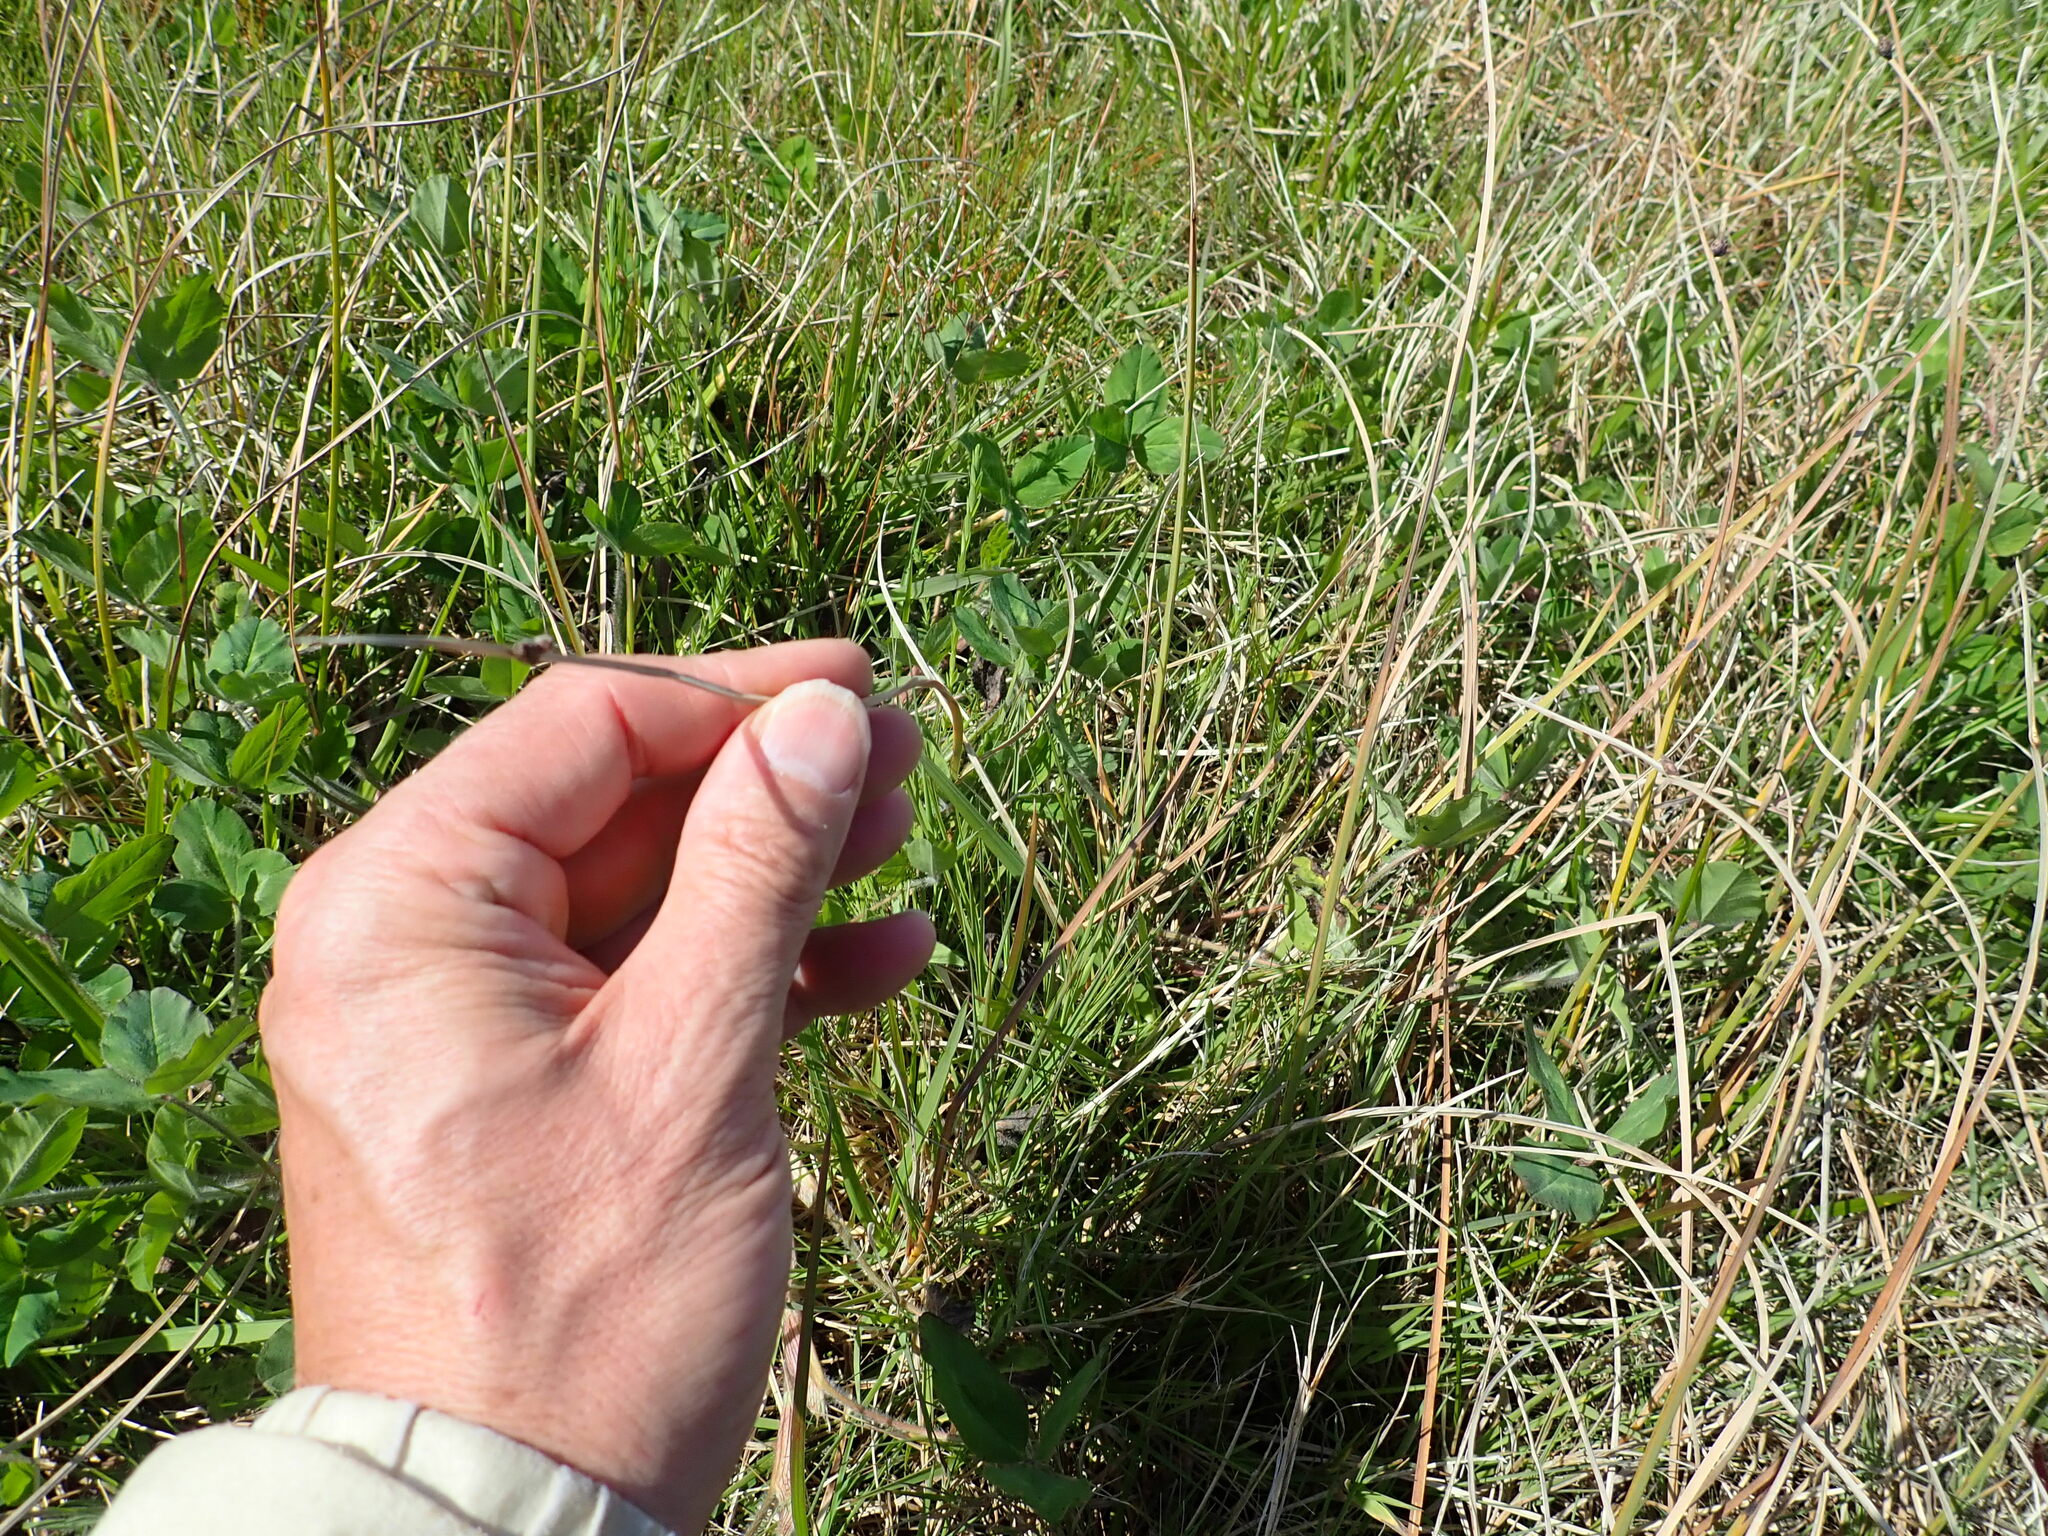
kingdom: Plantae
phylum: Tracheophyta
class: Liliopsida
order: Poales
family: Cyperaceae
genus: Schoenoplectus
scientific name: Schoenoplectus pungens
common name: Sharp club-rush
